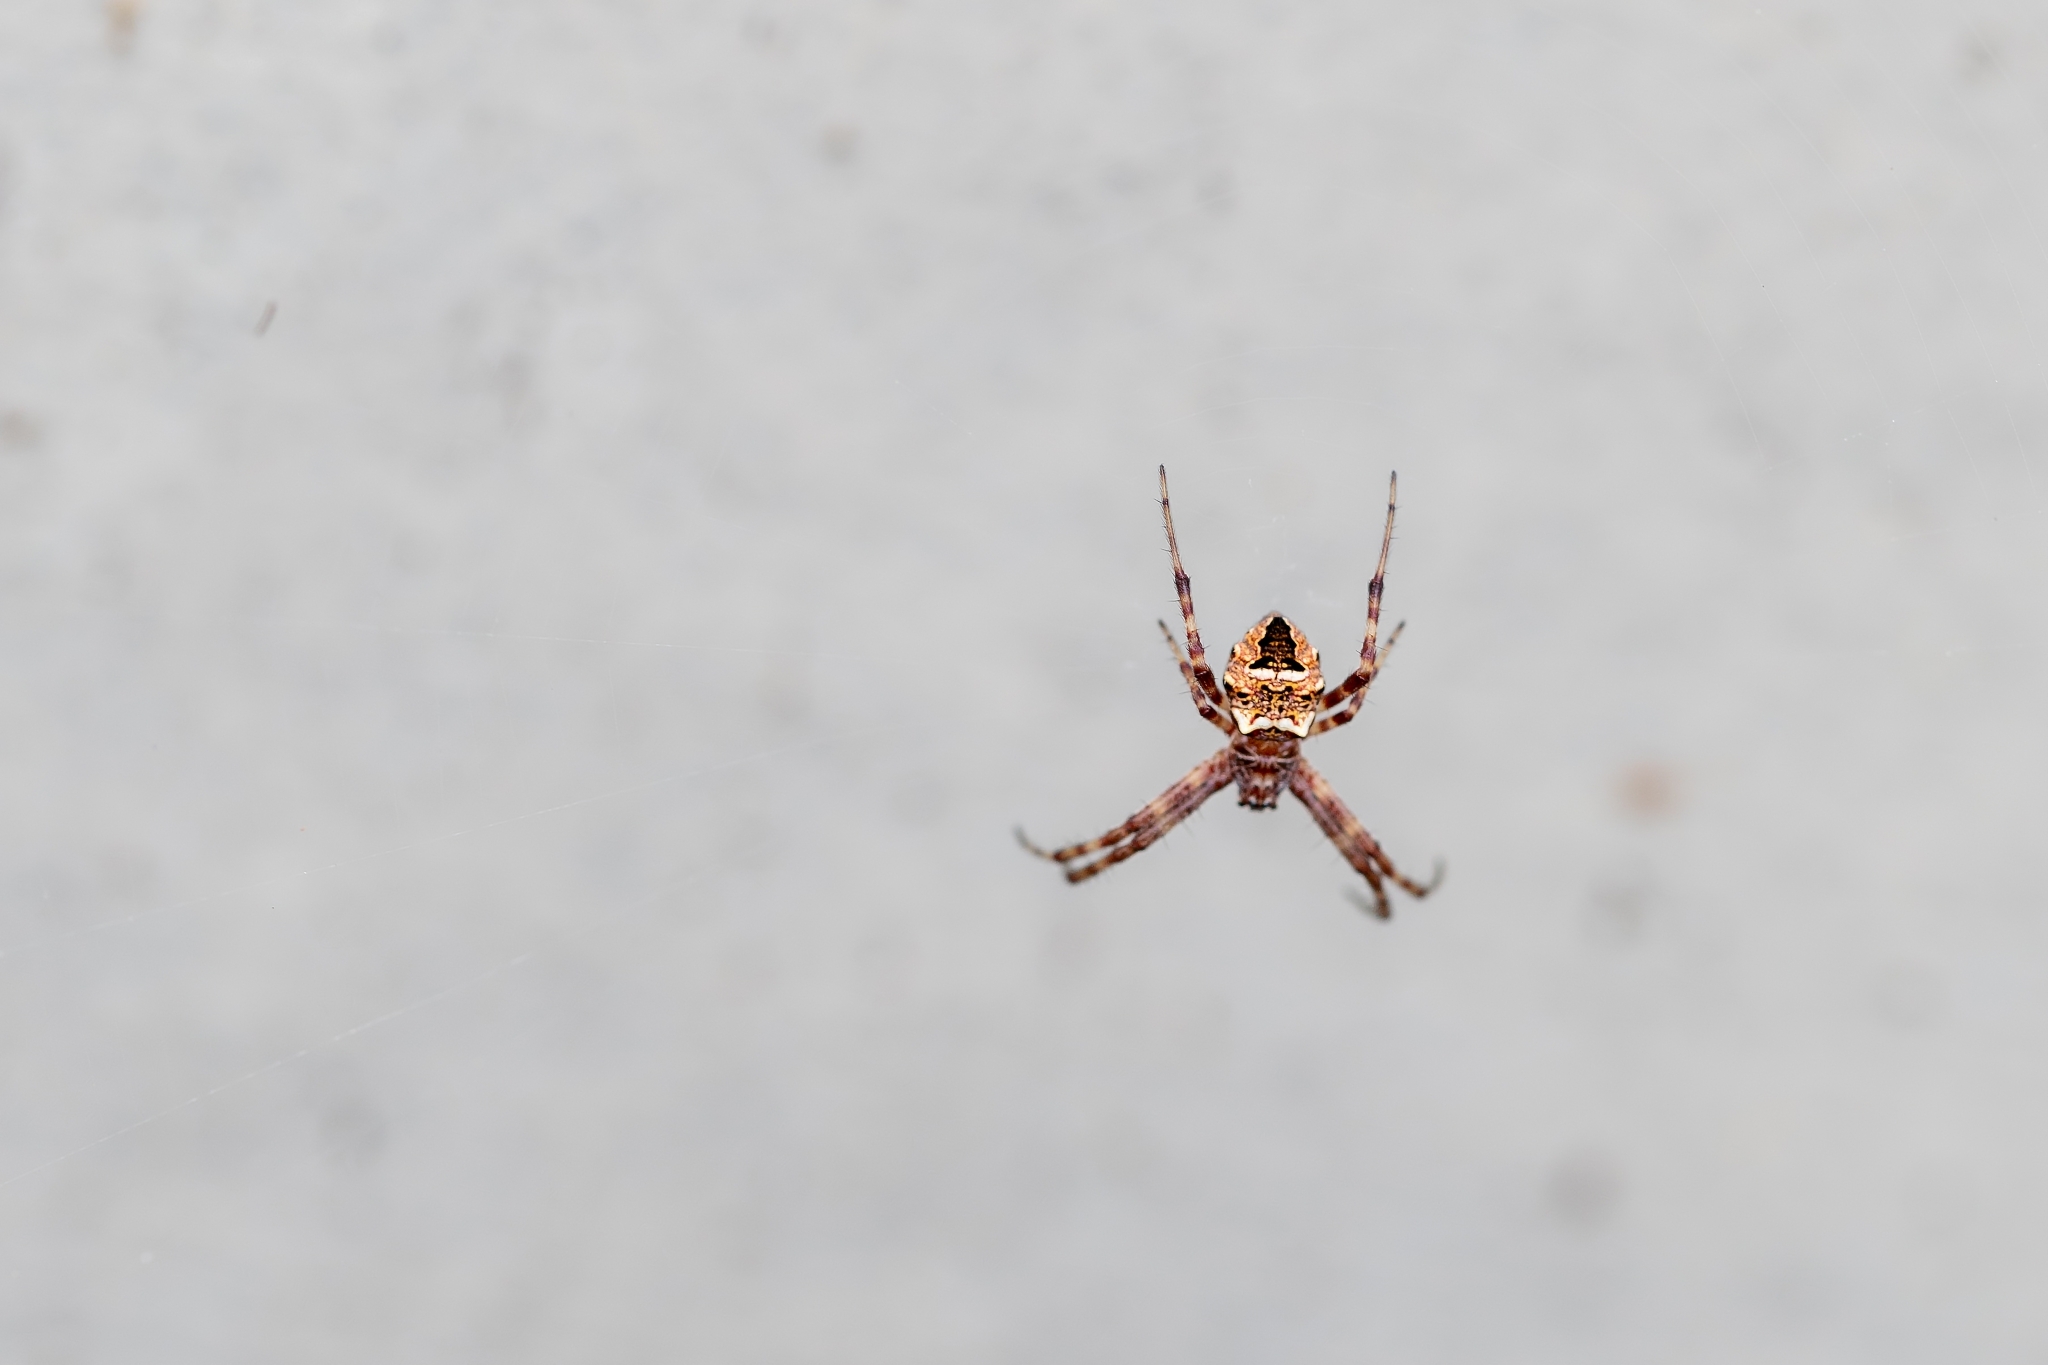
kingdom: Animalia
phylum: Arthropoda
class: Arachnida
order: Araneae
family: Araneidae
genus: Gea
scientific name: Gea heptagon
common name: Orb weavers
